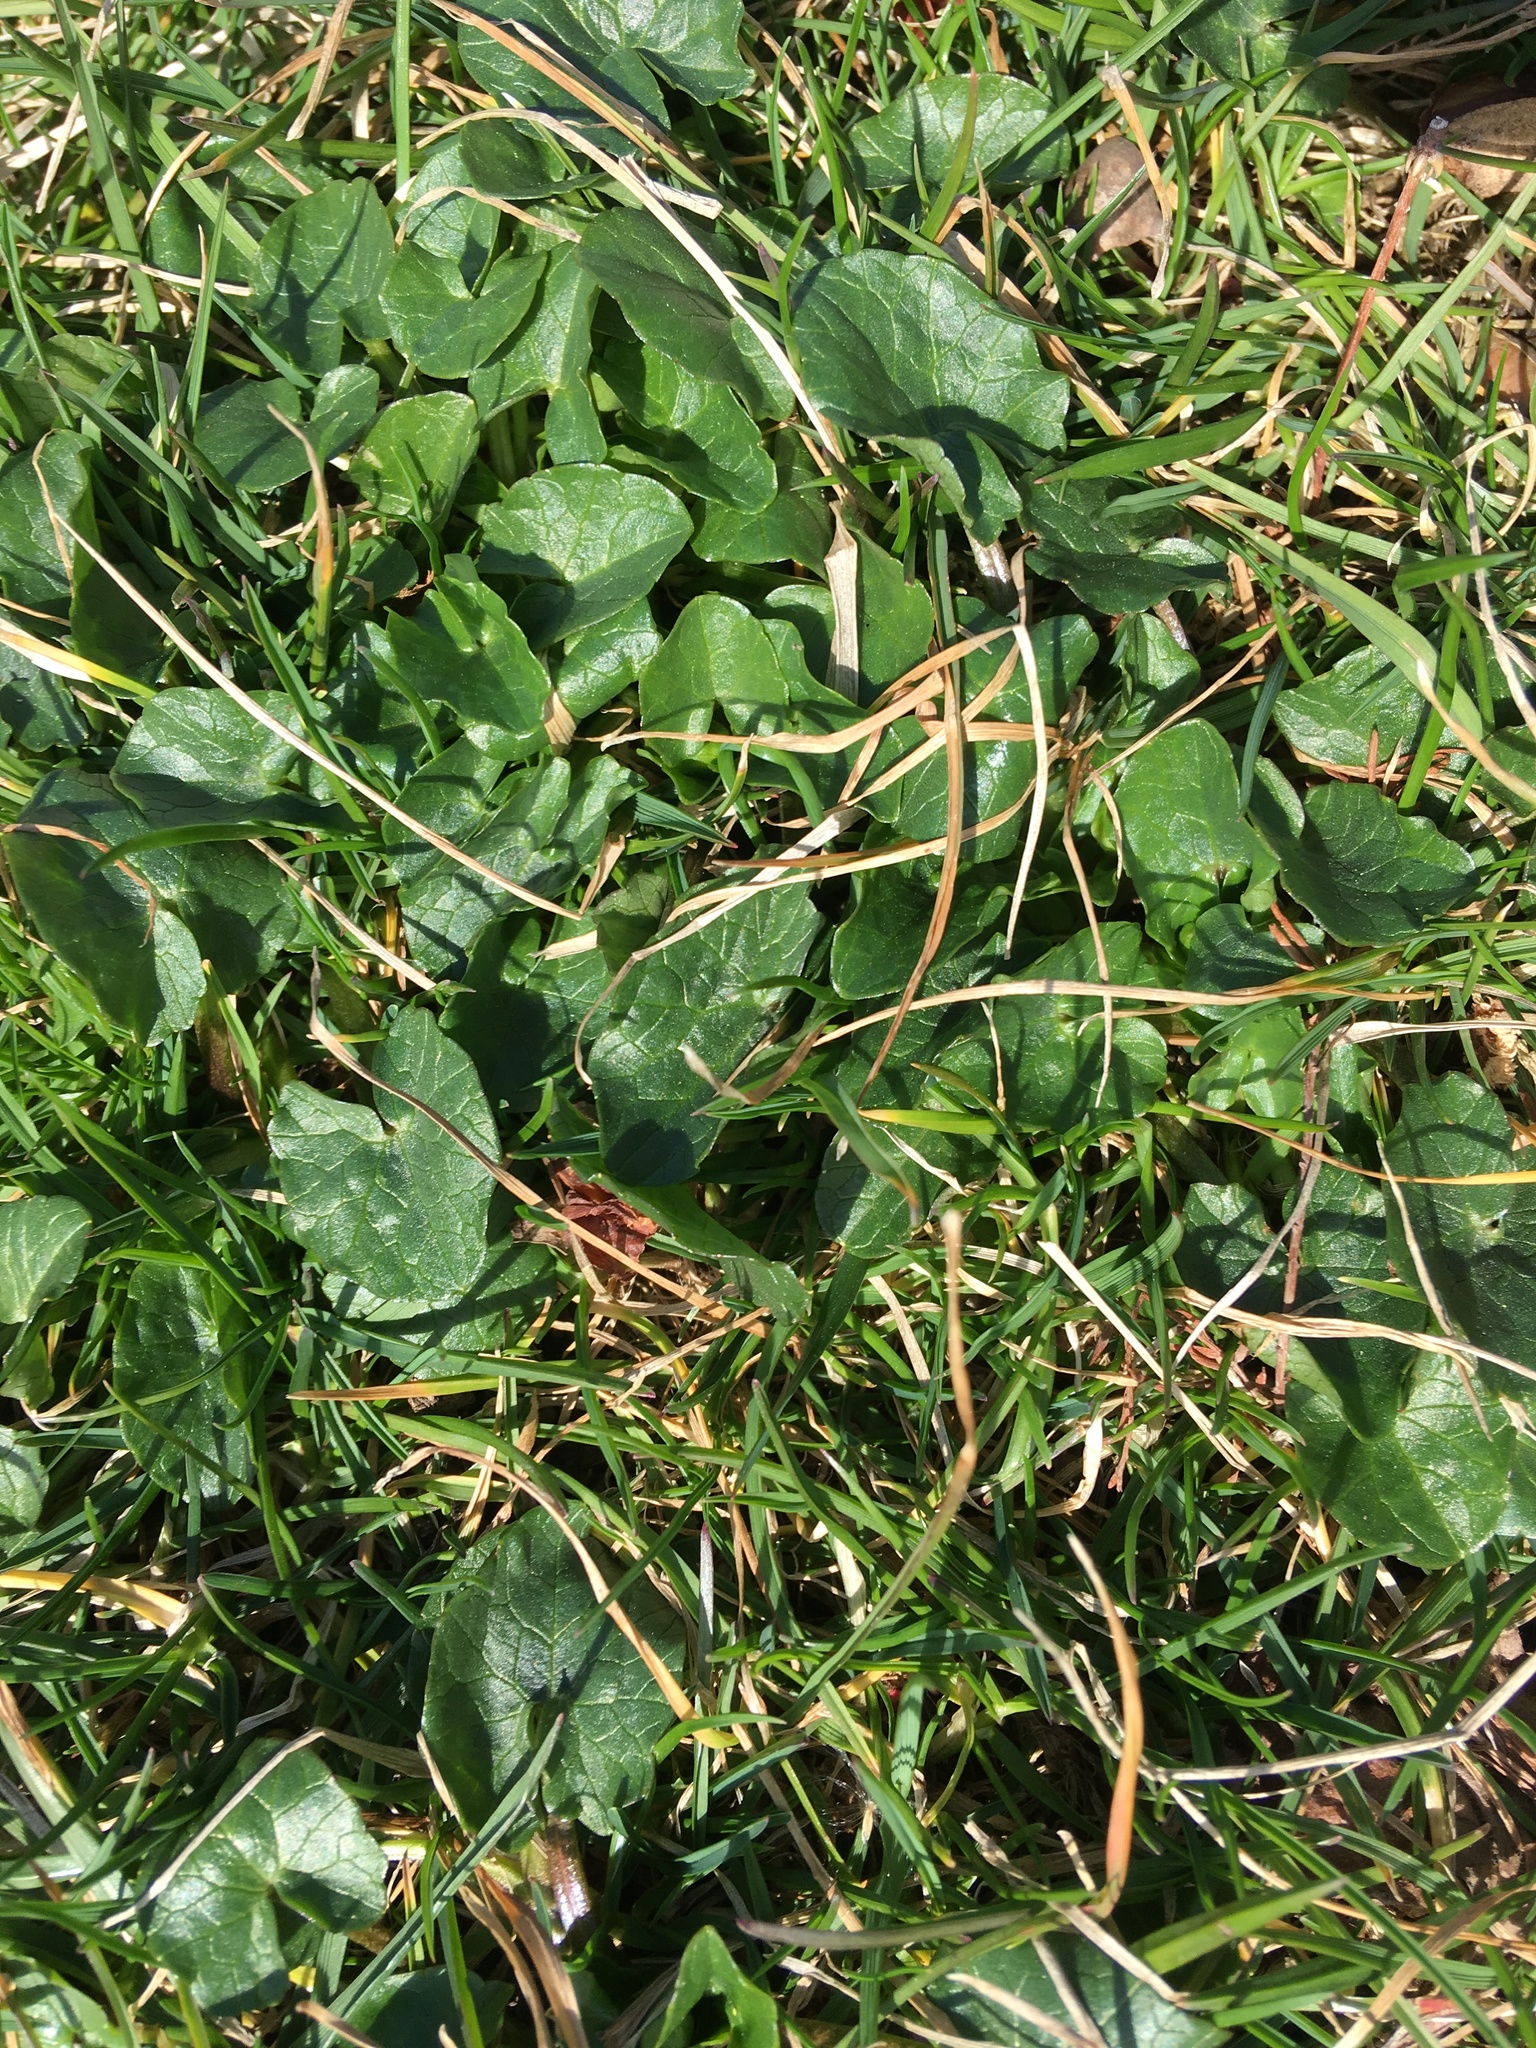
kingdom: Plantae
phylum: Tracheophyta
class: Magnoliopsida
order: Ranunculales
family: Ranunculaceae
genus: Ficaria
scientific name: Ficaria verna
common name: Lesser celandine
